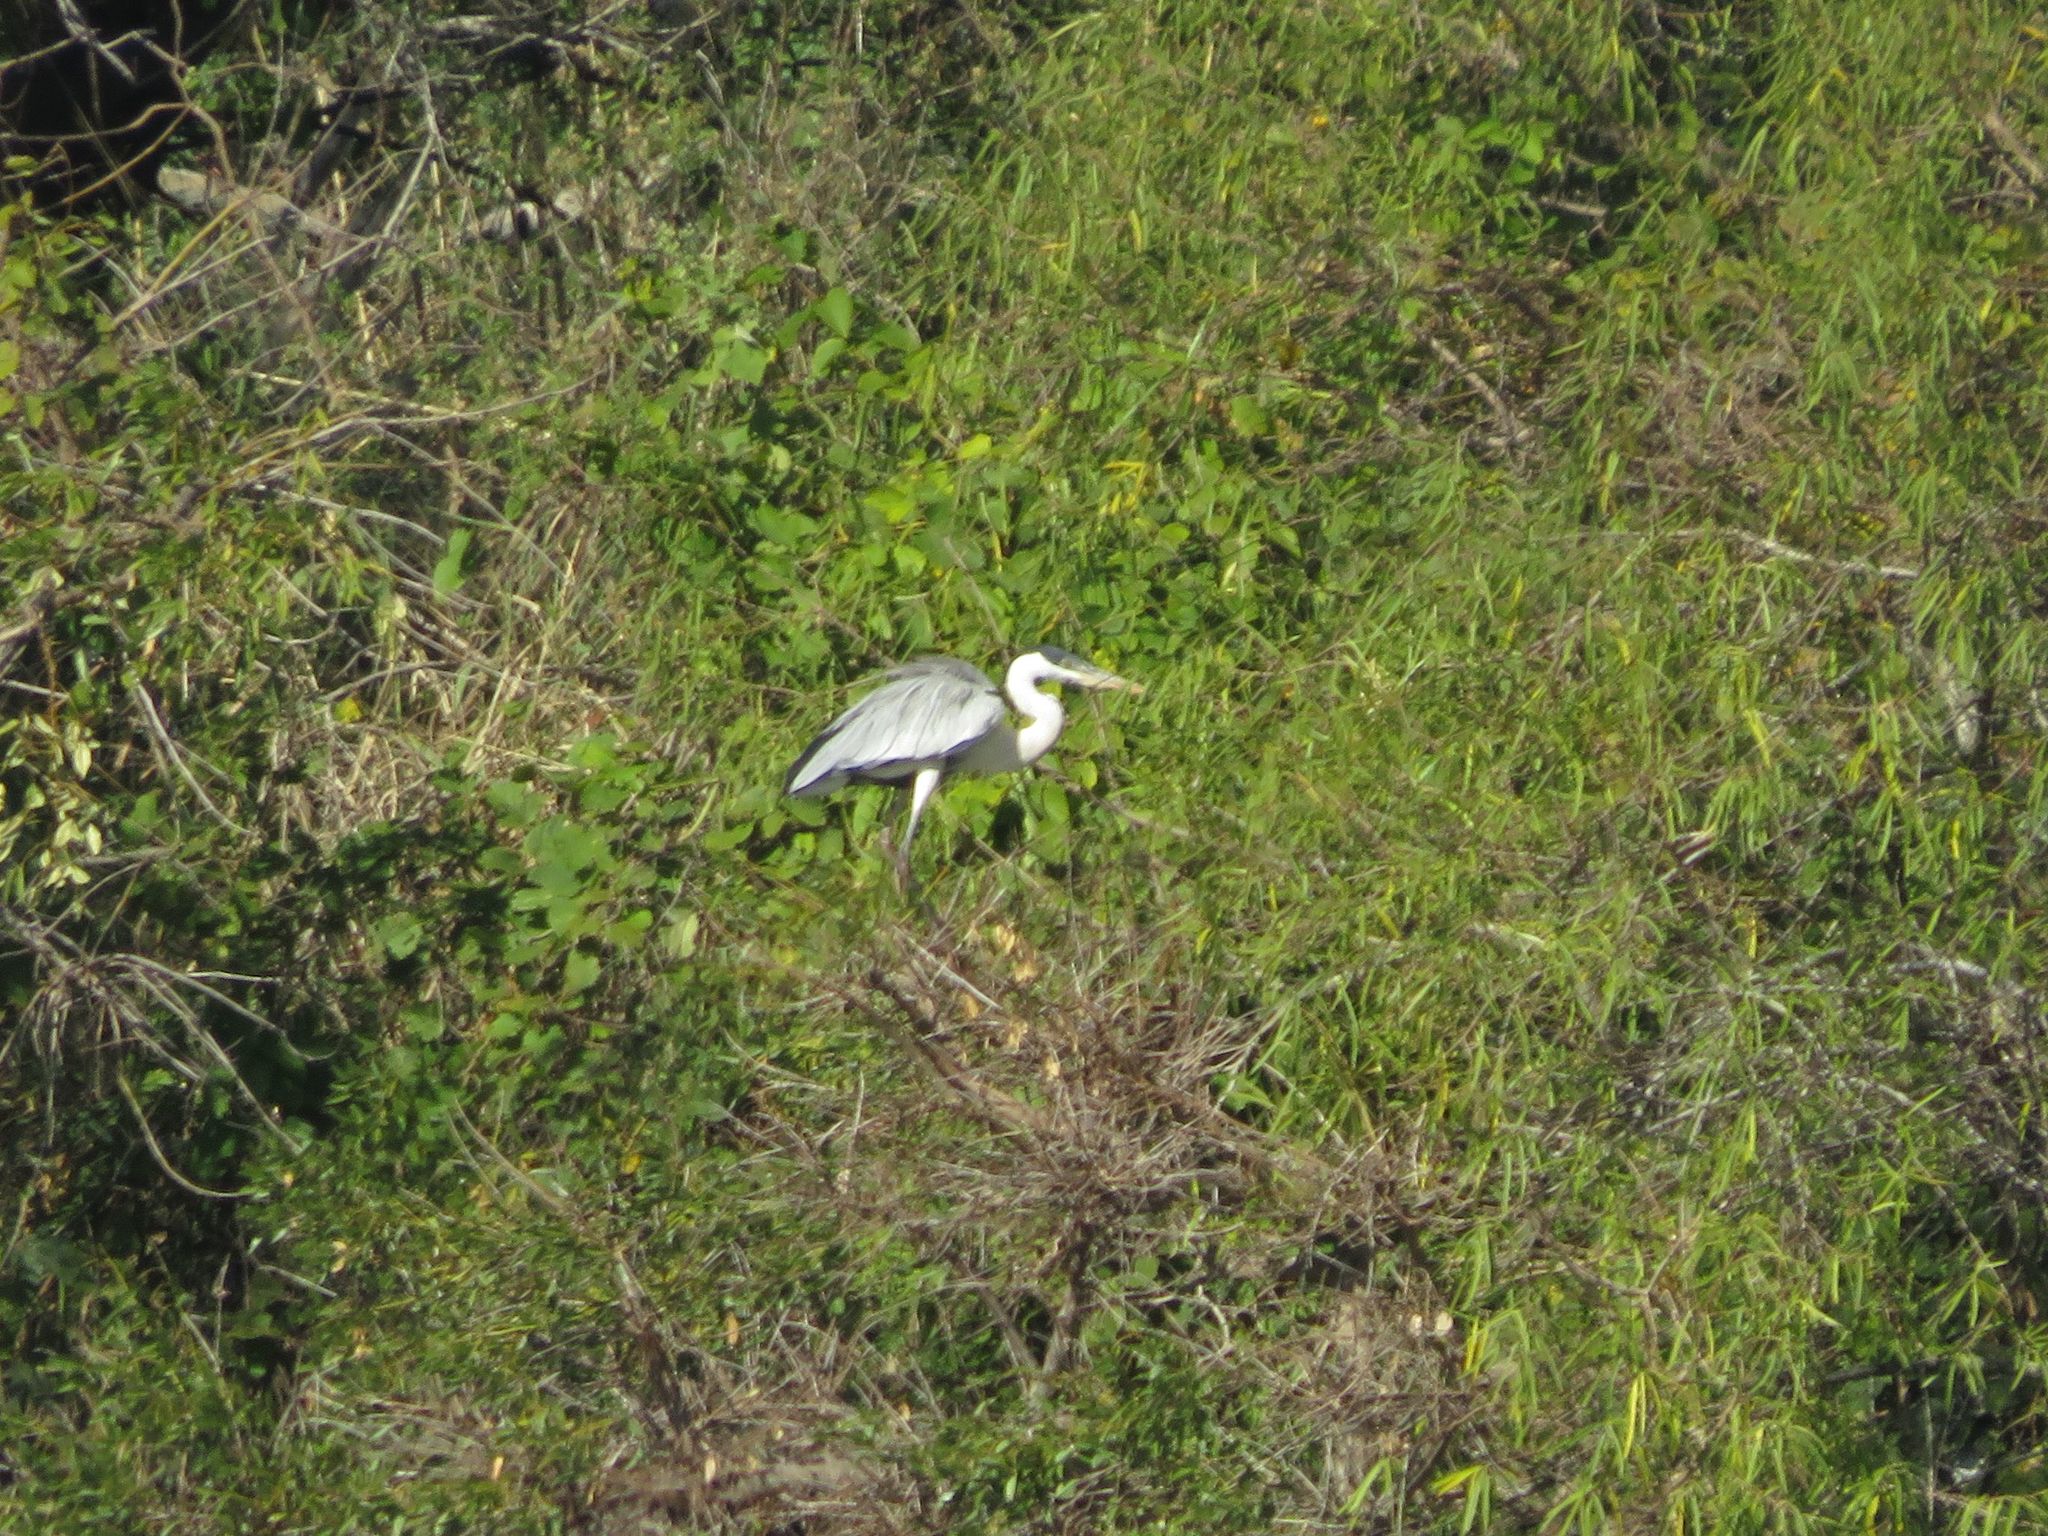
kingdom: Animalia
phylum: Chordata
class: Aves
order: Pelecaniformes
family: Ardeidae
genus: Ardea
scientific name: Ardea cocoi
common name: Cocoi heron
